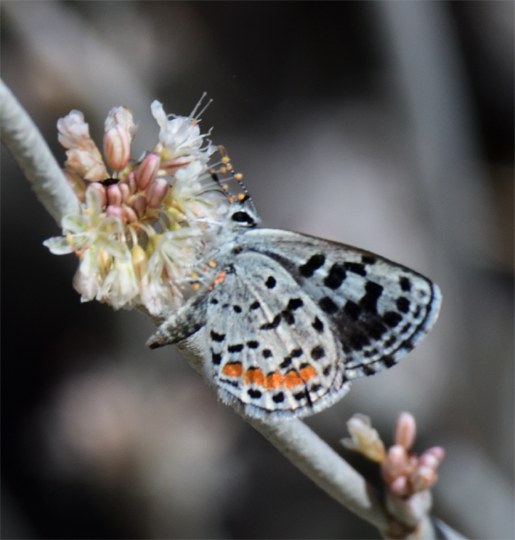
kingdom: Animalia
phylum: Arthropoda
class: Insecta
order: Lepidoptera
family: Lycaenidae
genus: Euphilotes
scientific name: Euphilotes enoptes
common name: Dotted blue
